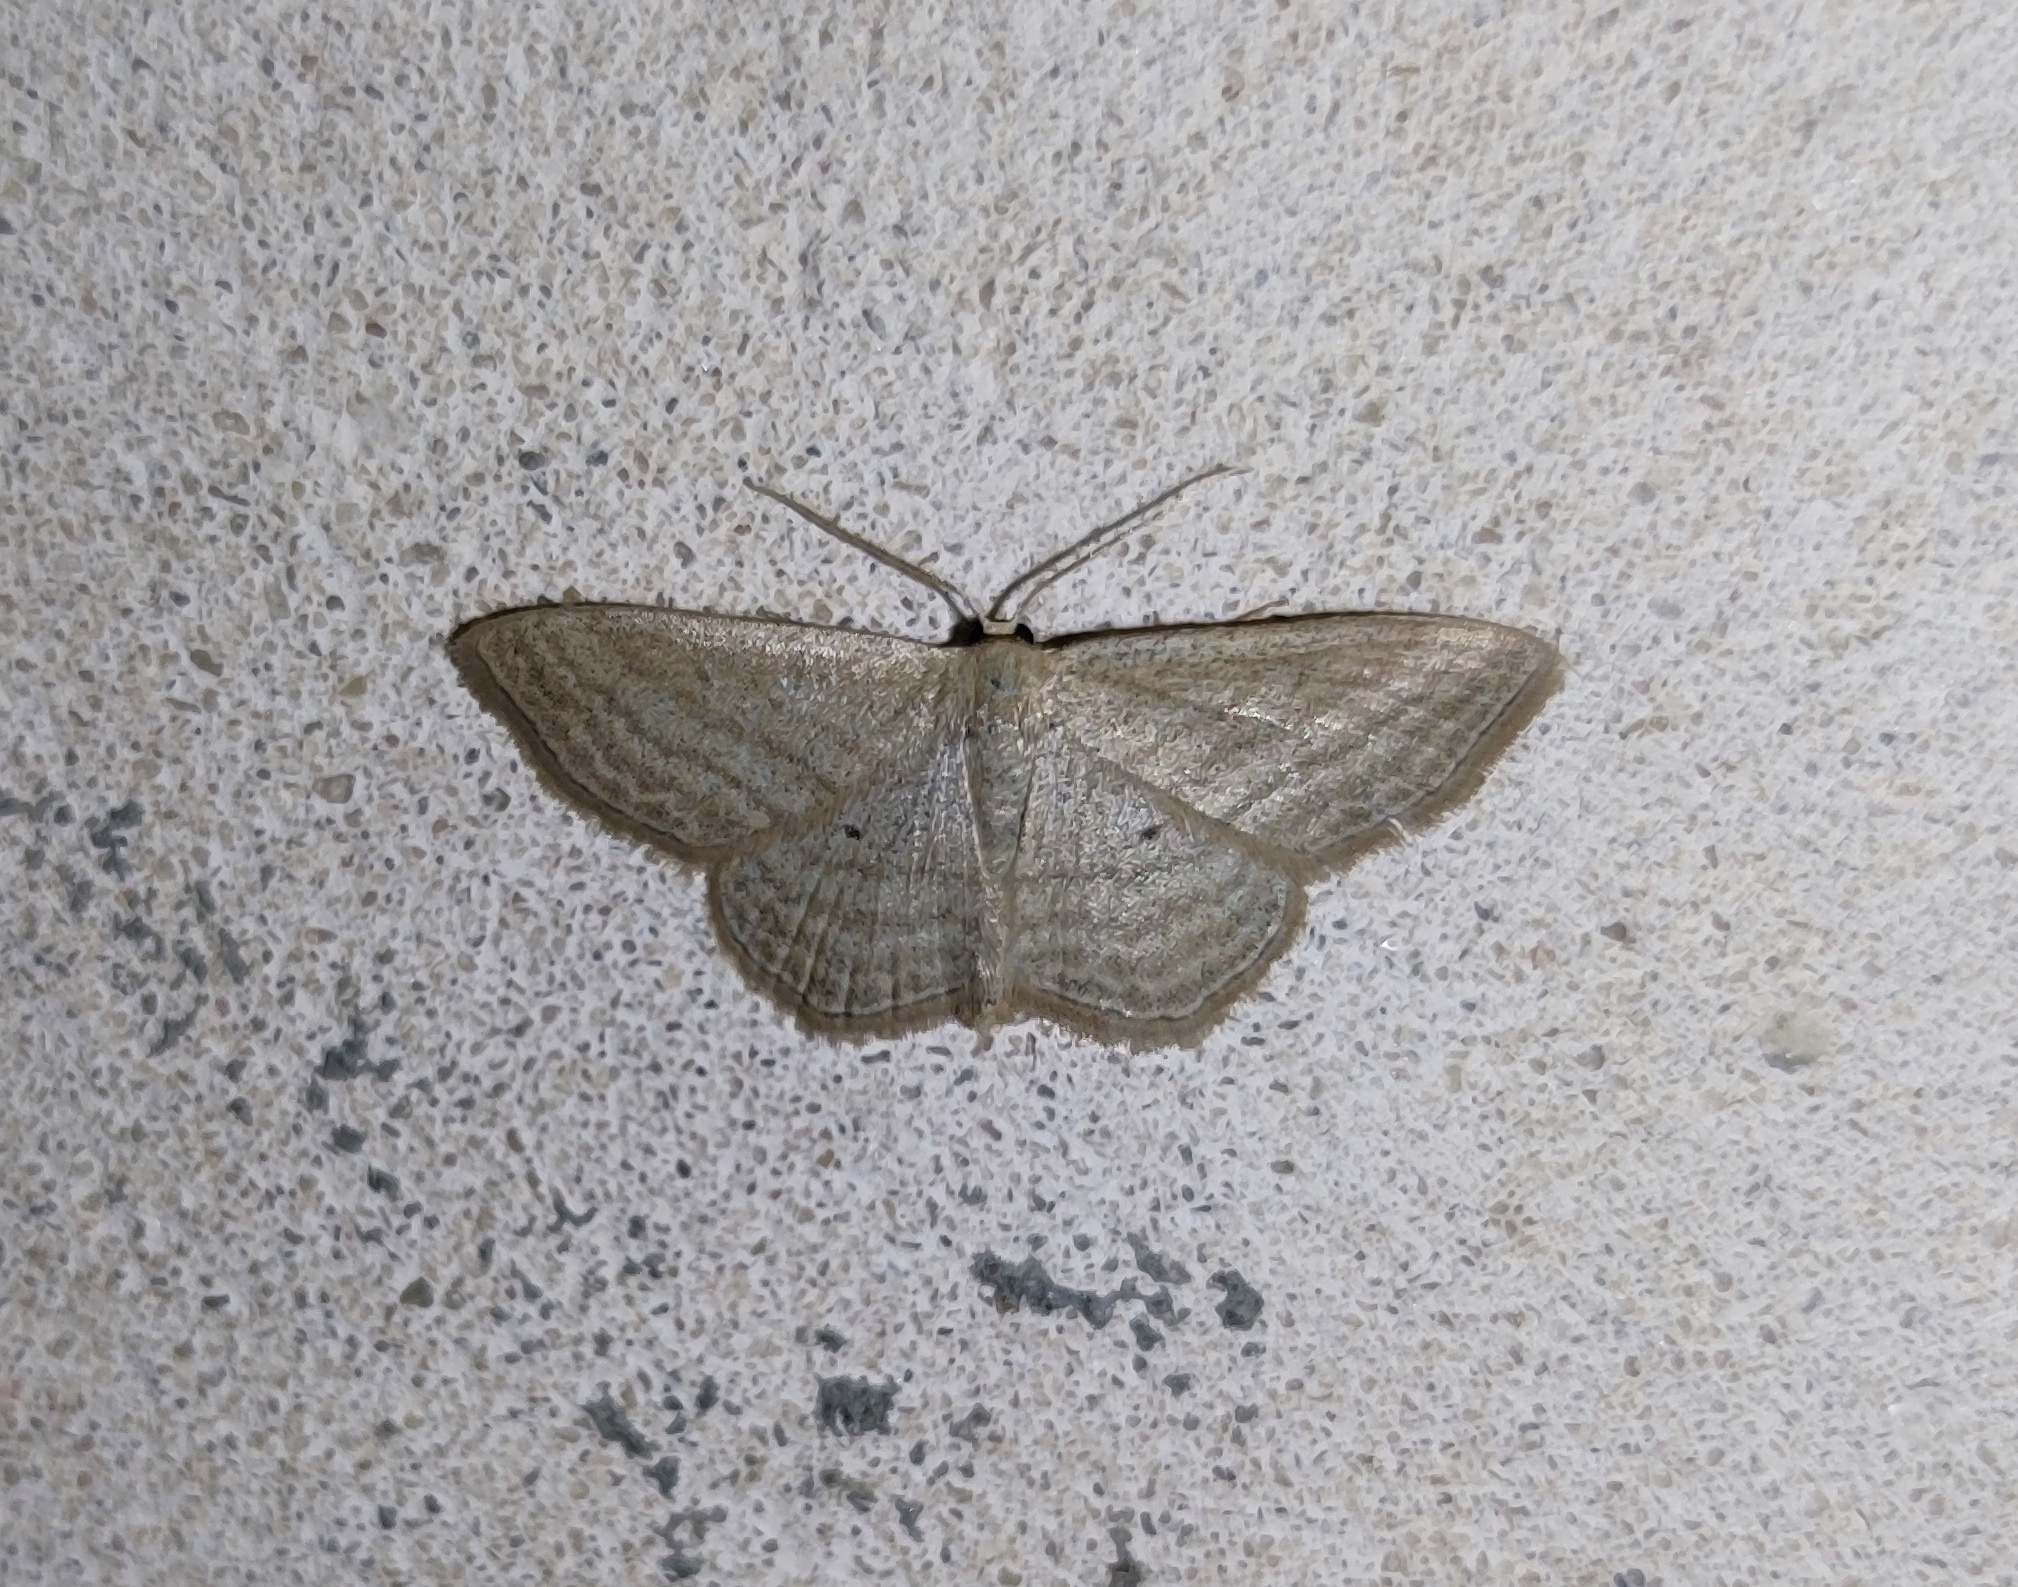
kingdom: Animalia
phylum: Arthropoda
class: Insecta
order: Lepidoptera
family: Geometridae
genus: Scopula
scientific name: Scopula virgulata
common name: Streaked wave
